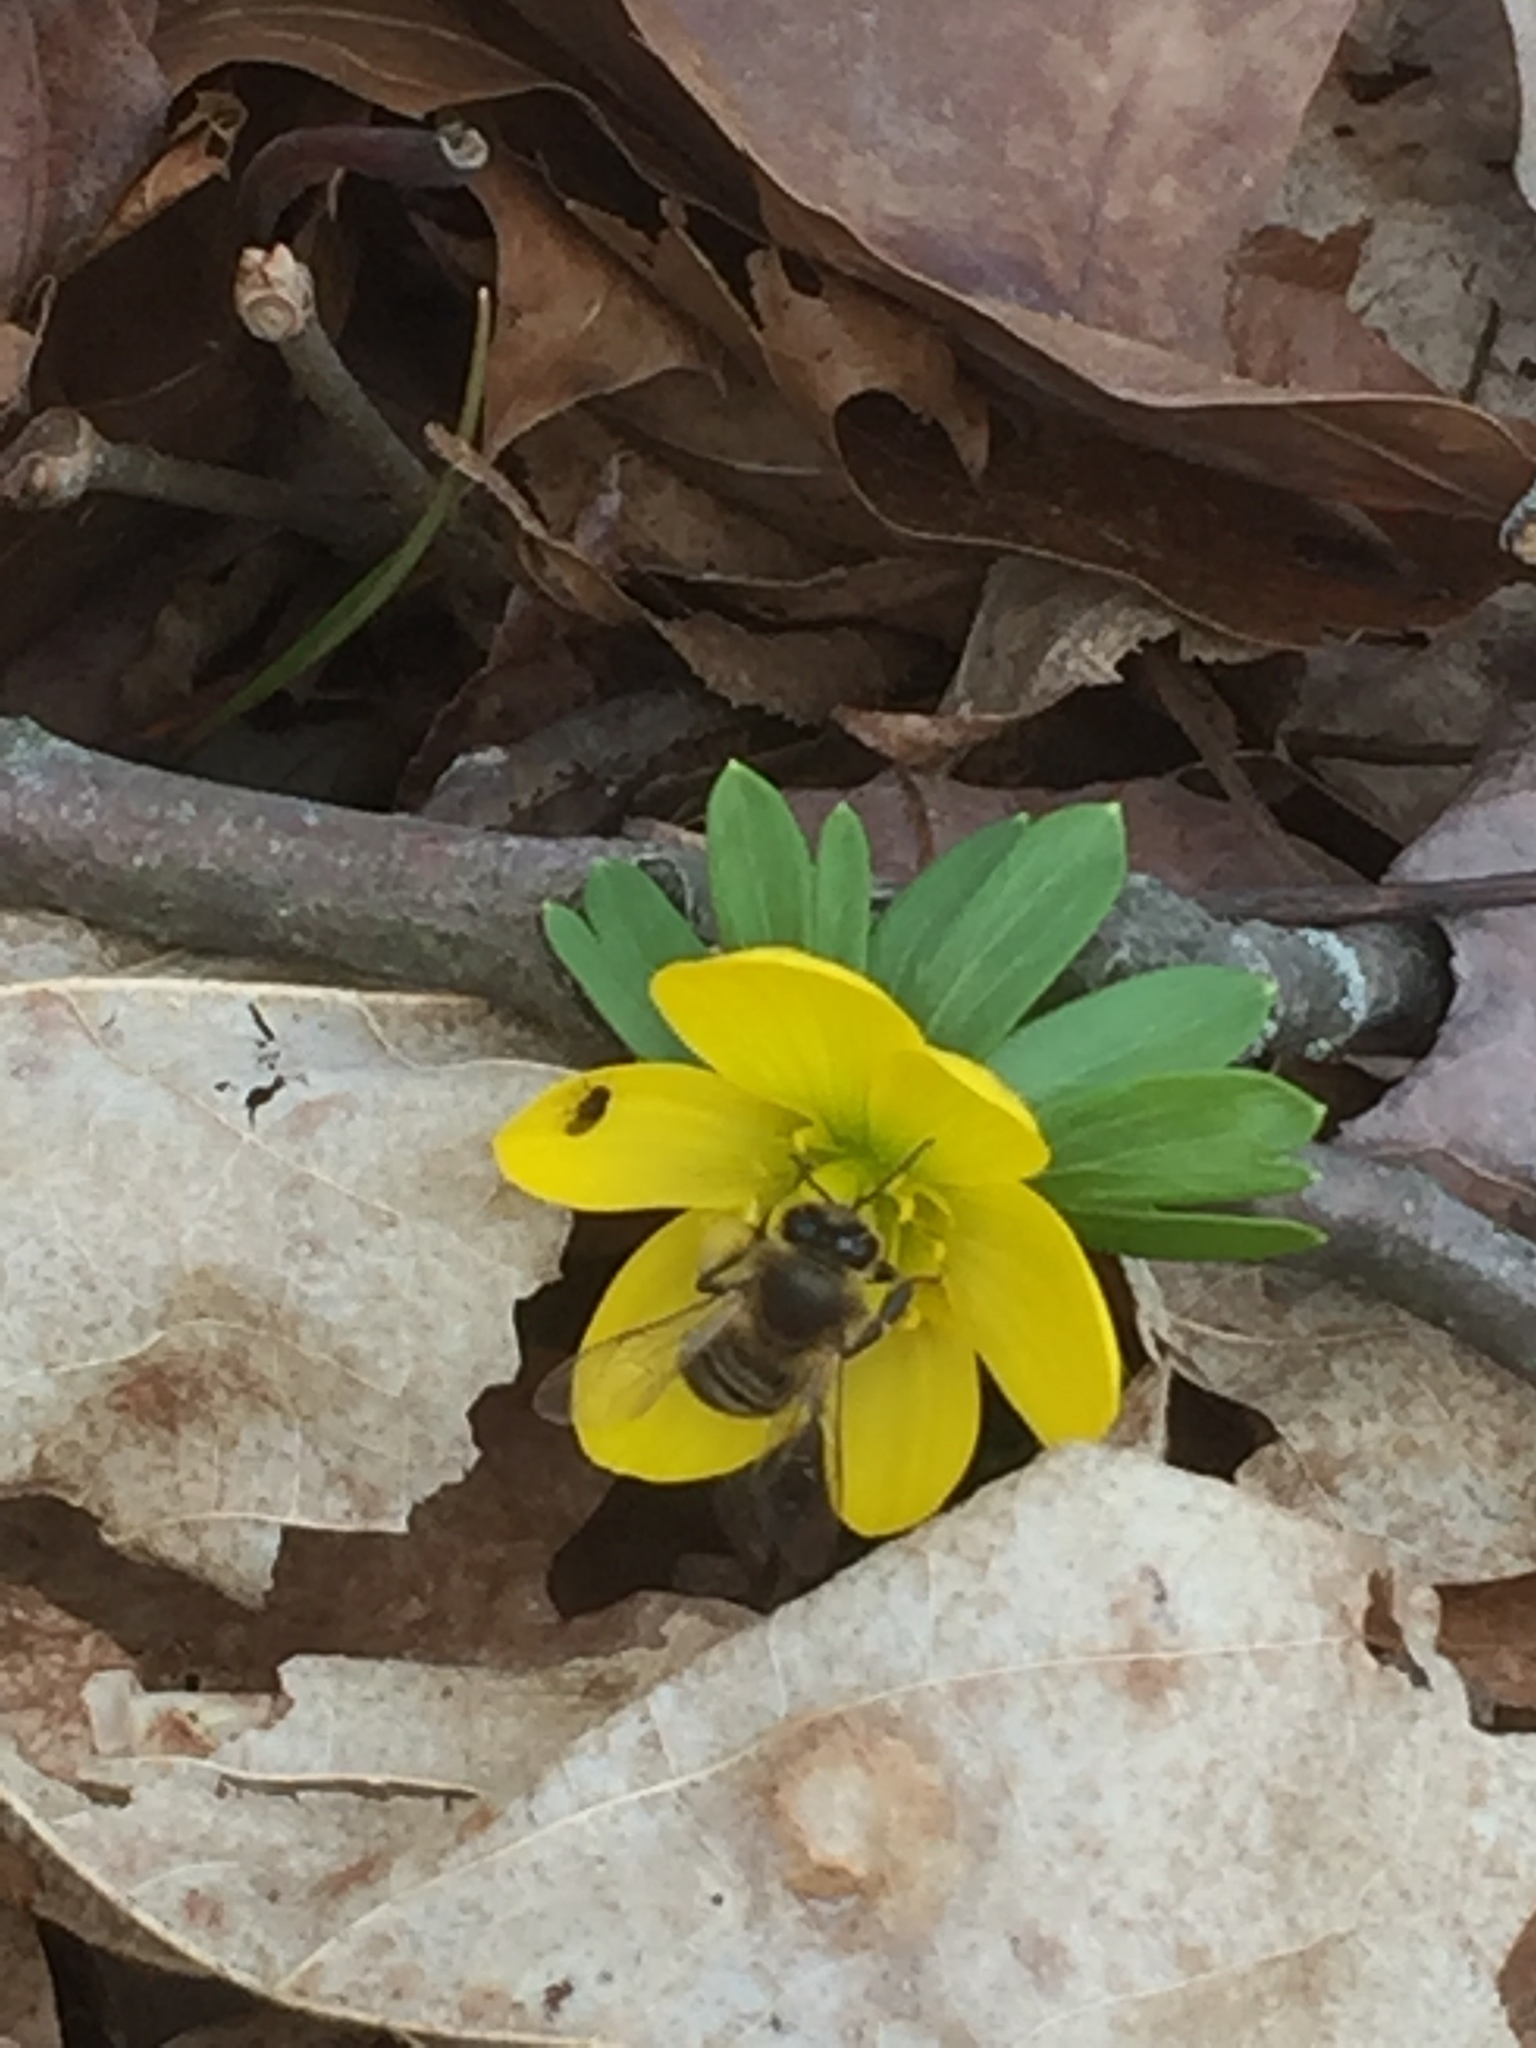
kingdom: Animalia
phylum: Arthropoda
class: Insecta
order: Hymenoptera
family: Apidae
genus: Apis
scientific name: Apis mellifera
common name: Honey bee
